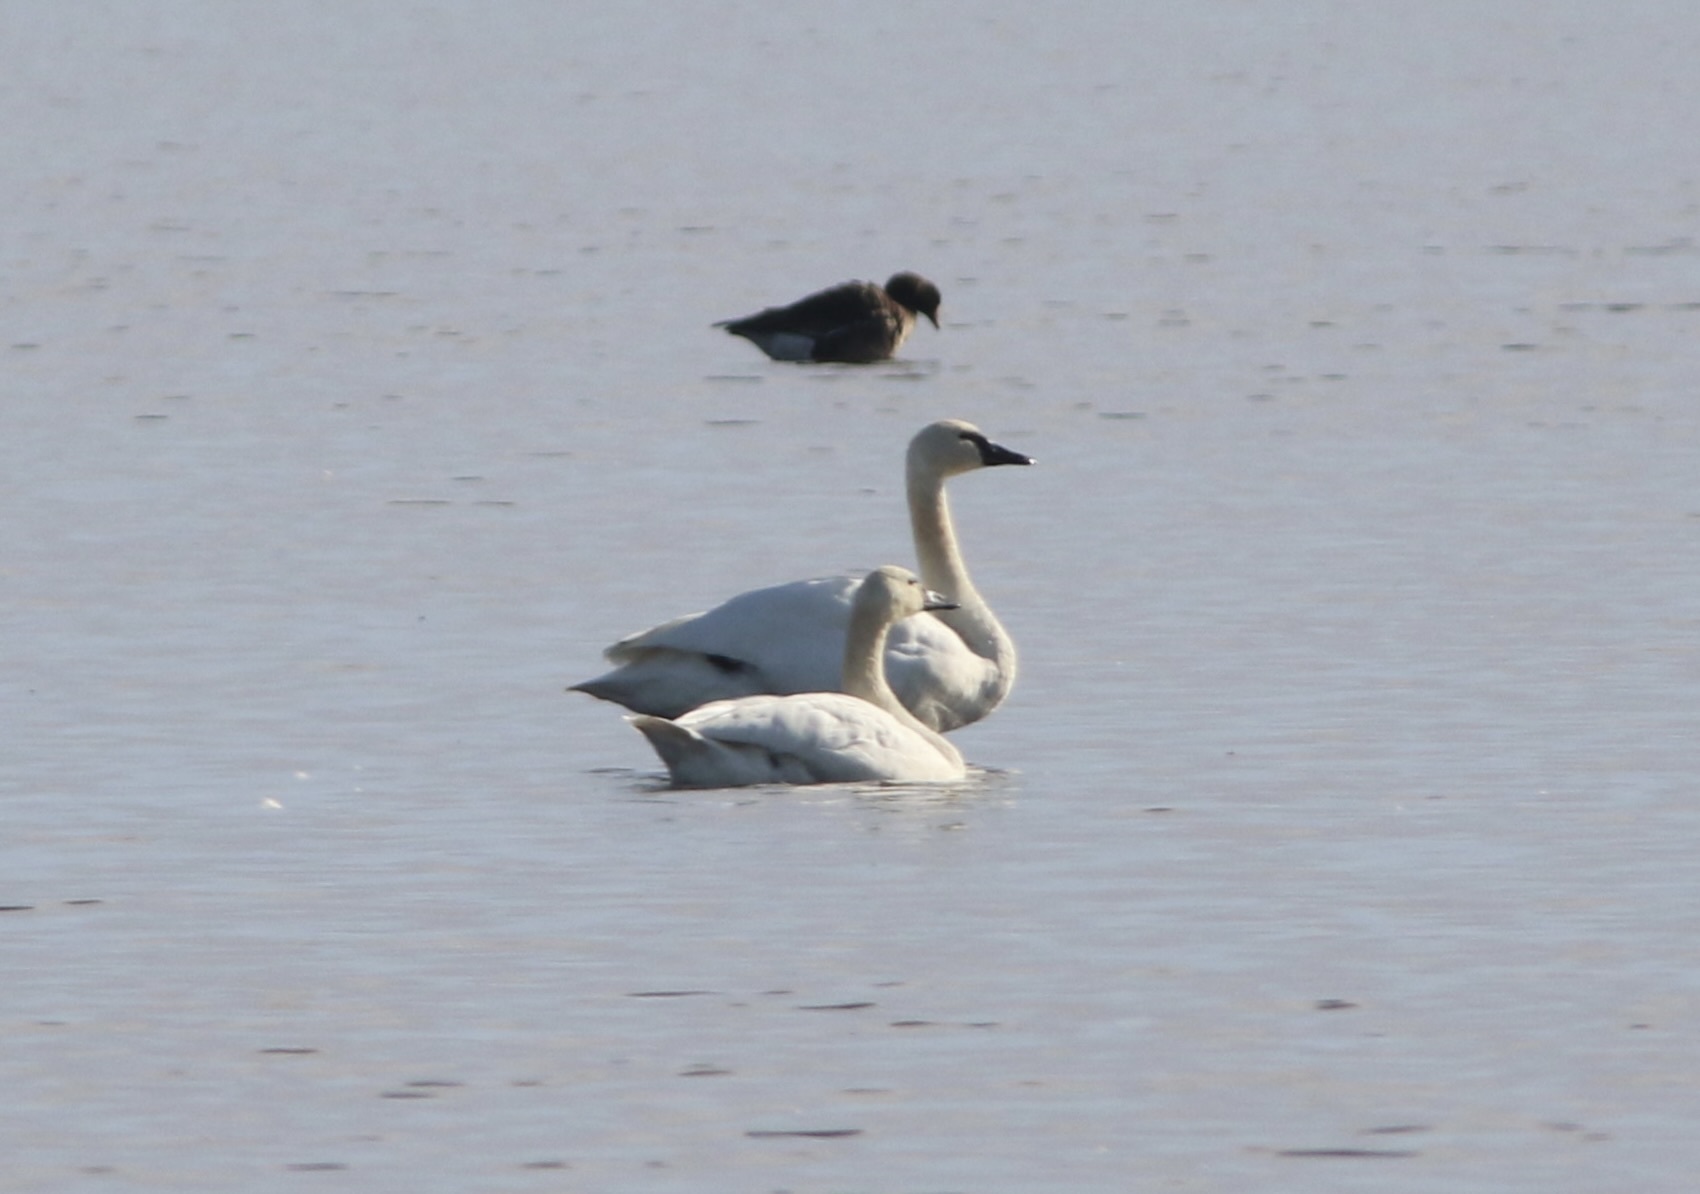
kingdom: Animalia
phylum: Chordata
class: Aves
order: Anseriformes
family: Anatidae
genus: Cygnus
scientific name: Cygnus columbianus
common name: Tundra swan
